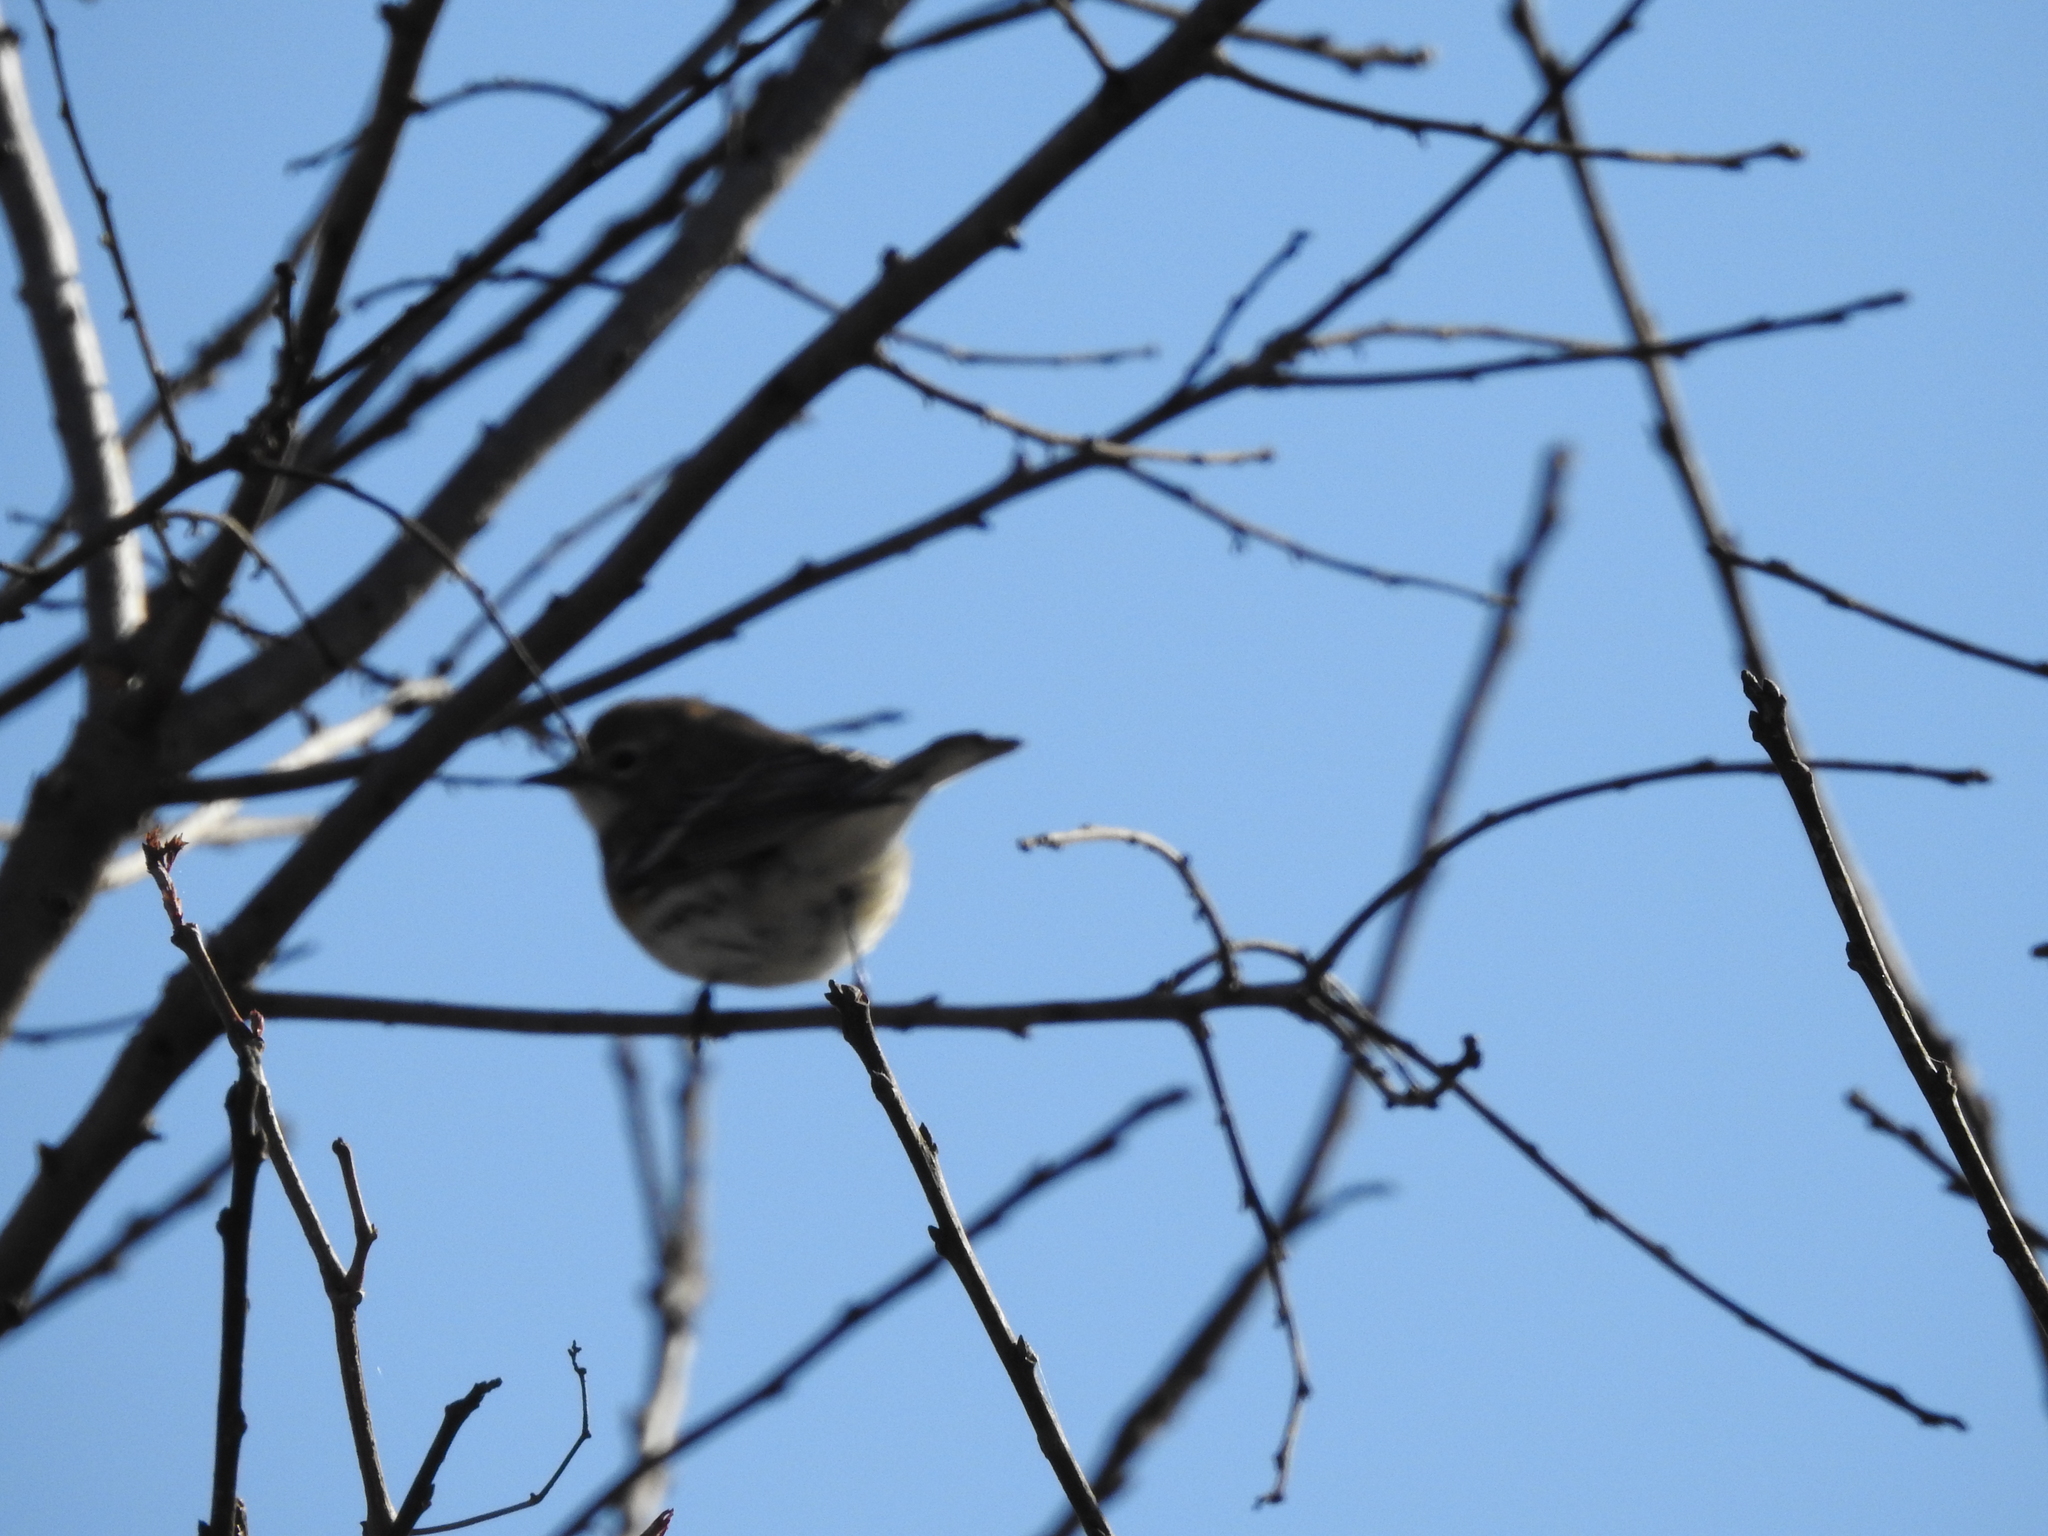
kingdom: Animalia
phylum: Chordata
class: Aves
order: Passeriformes
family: Parulidae
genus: Setophaga
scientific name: Setophaga coronata
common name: Myrtle warbler
